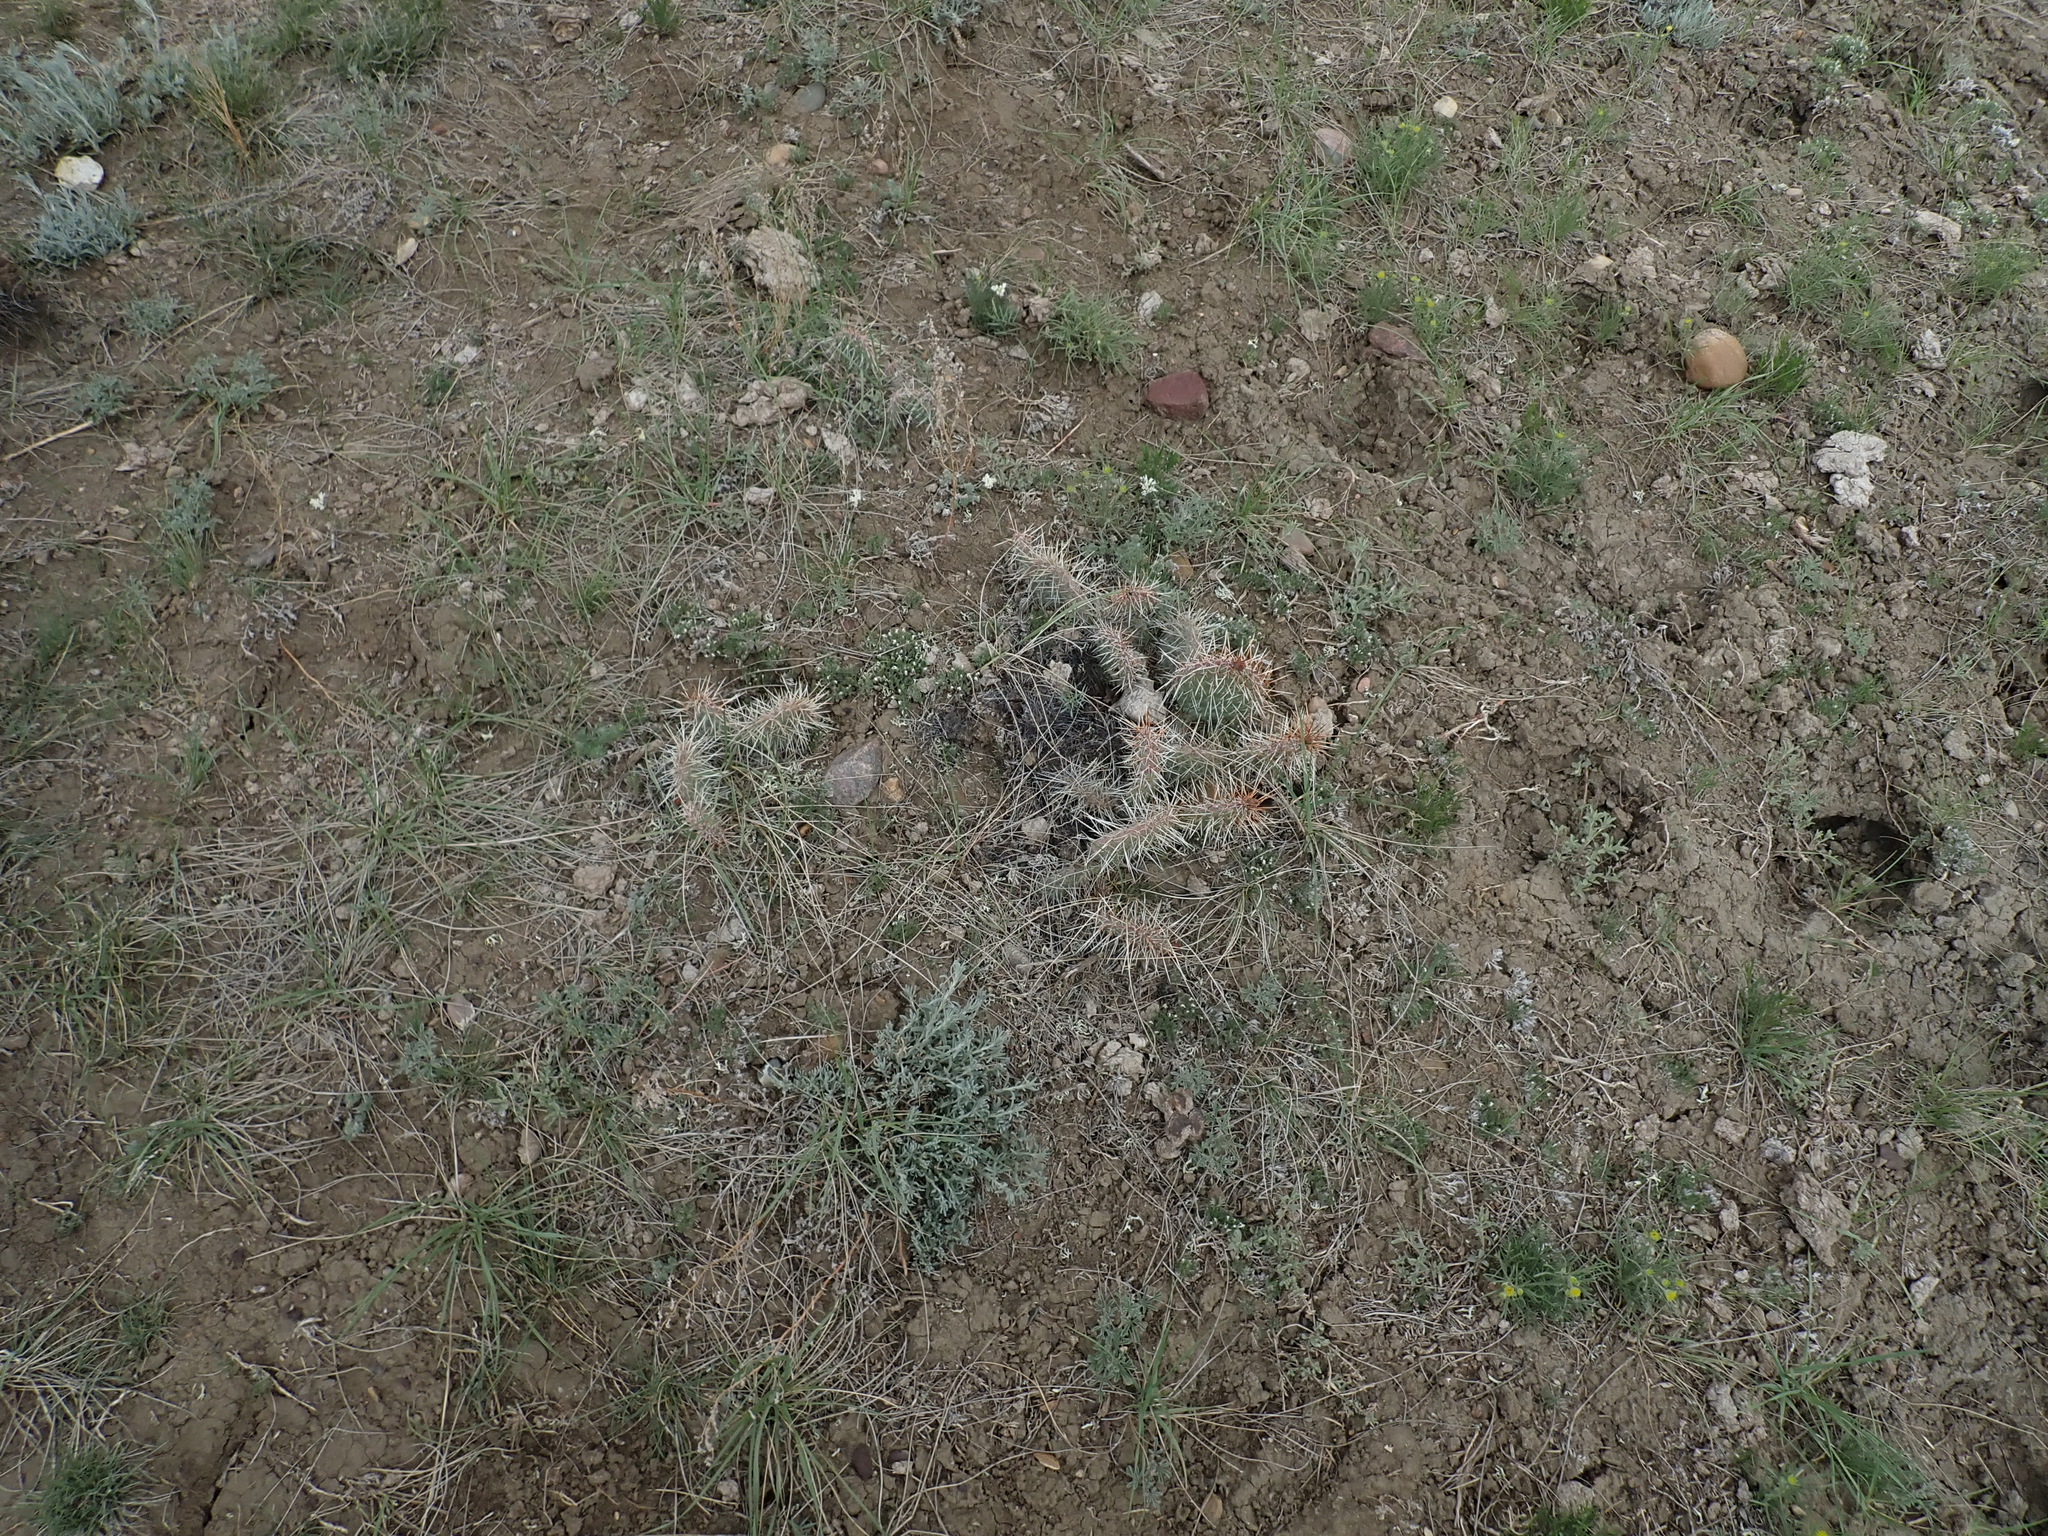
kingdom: Plantae
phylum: Tracheophyta
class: Magnoliopsida
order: Caryophyllales
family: Cactaceae
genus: Opuntia
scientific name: Opuntia polyacantha
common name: Plains prickly-pear
